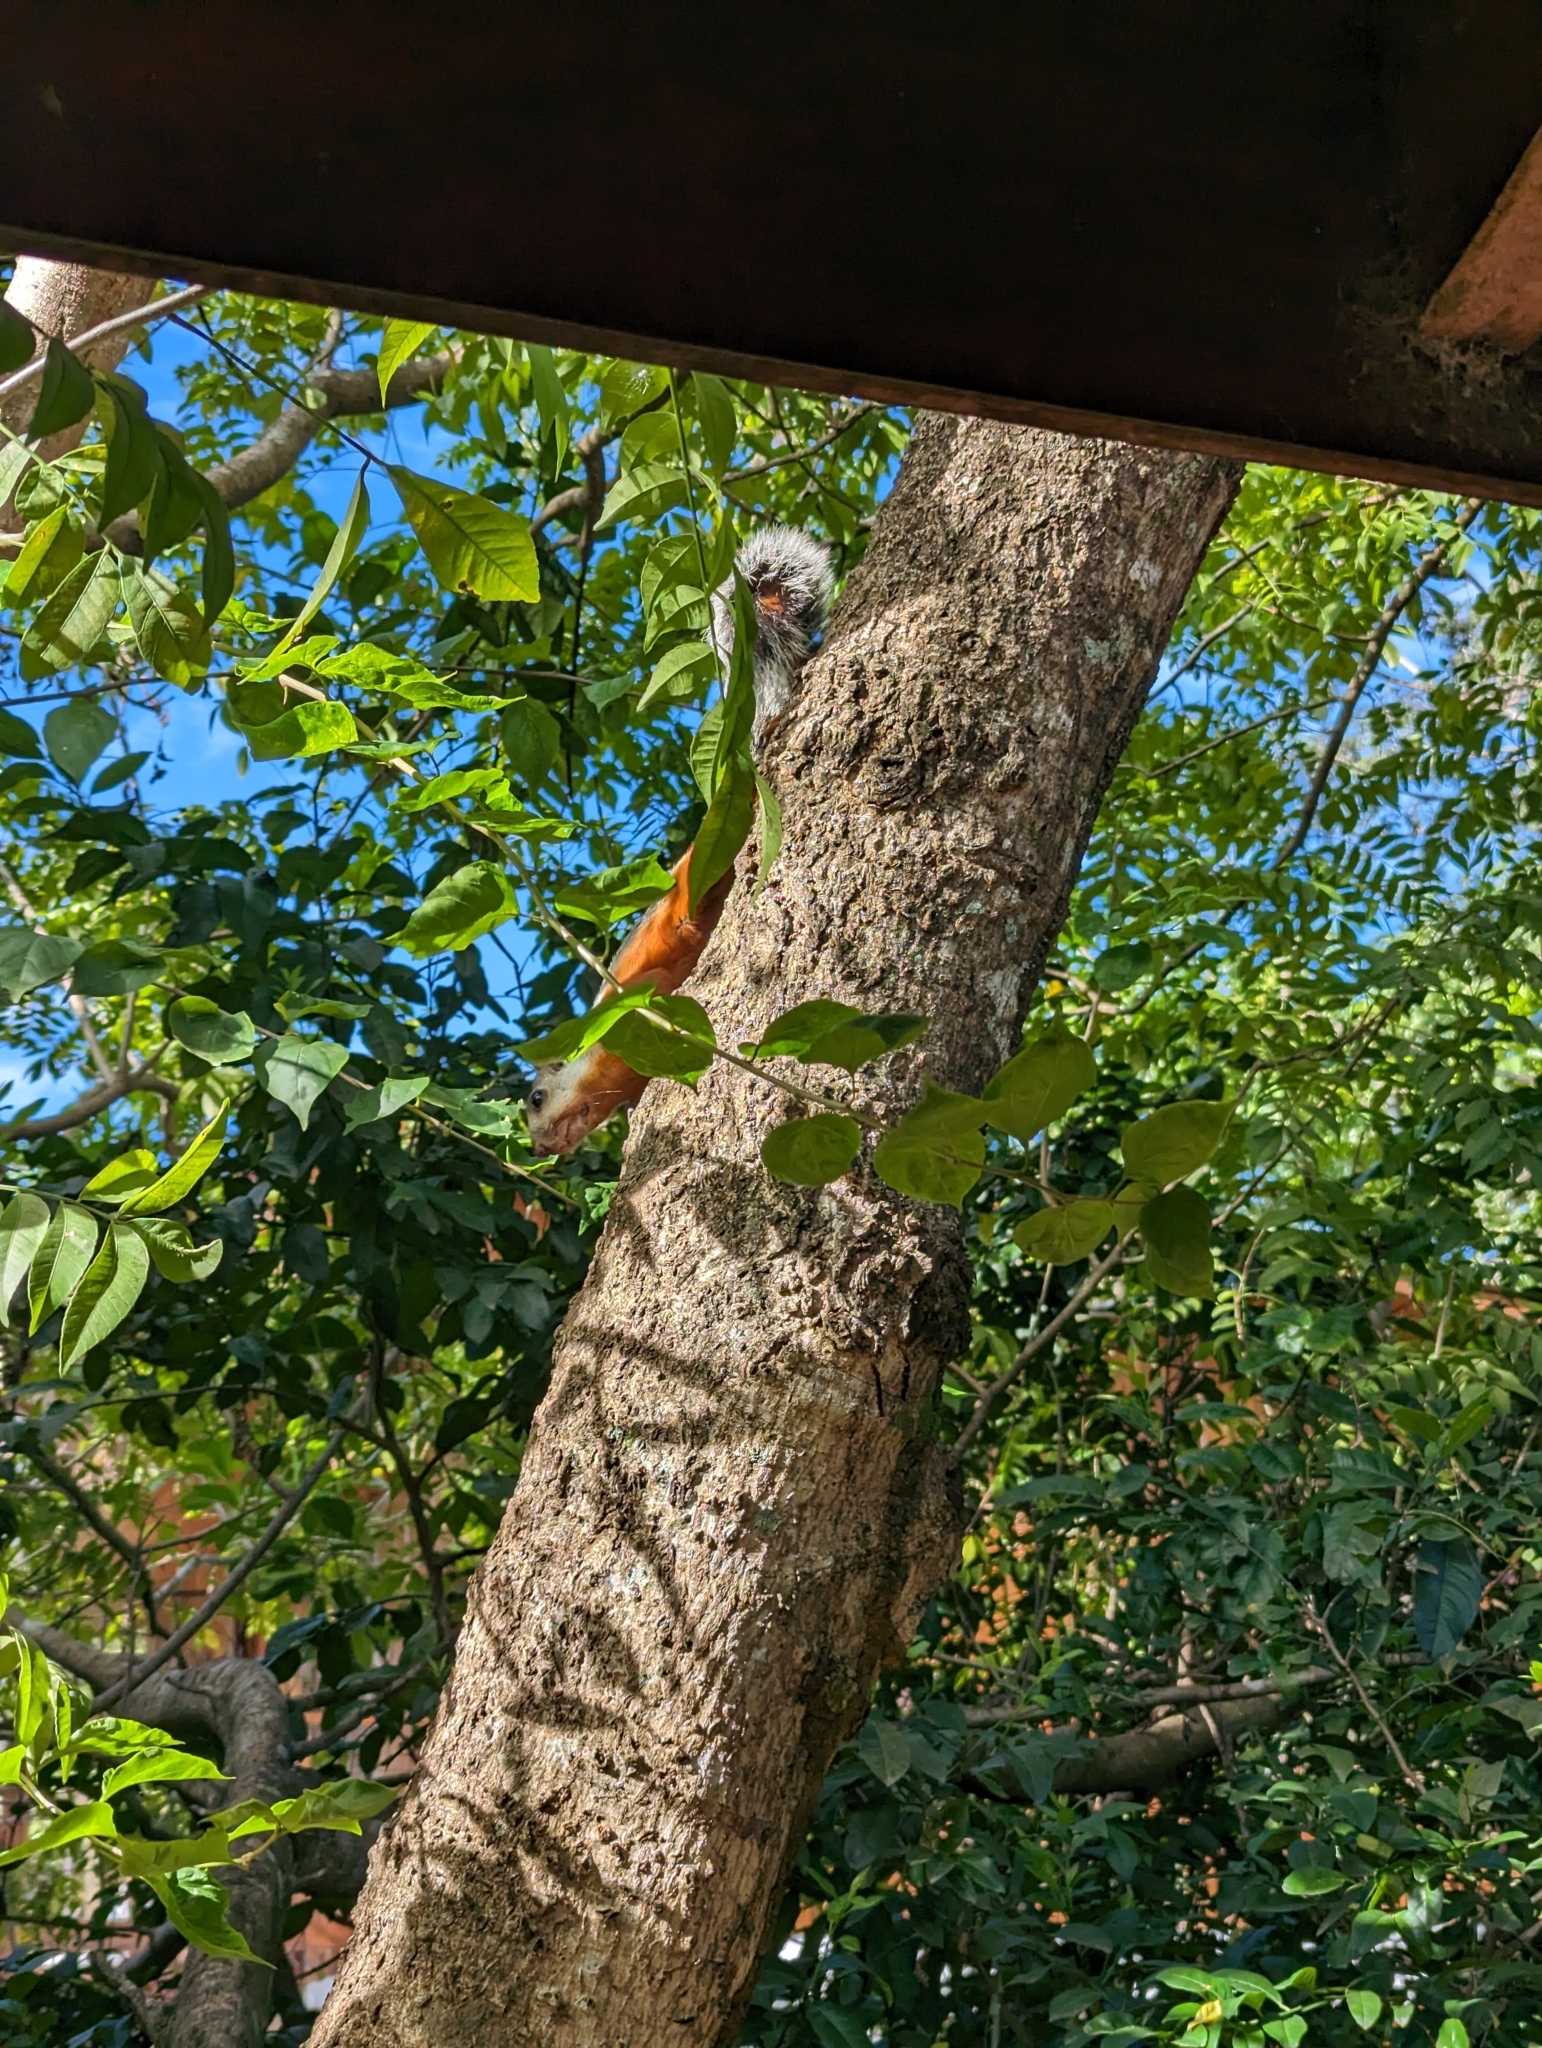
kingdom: Animalia
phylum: Chordata
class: Mammalia
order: Rodentia
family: Sciuridae
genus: Sciurus
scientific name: Sciurus variegatoides
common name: Variegated squirrel
